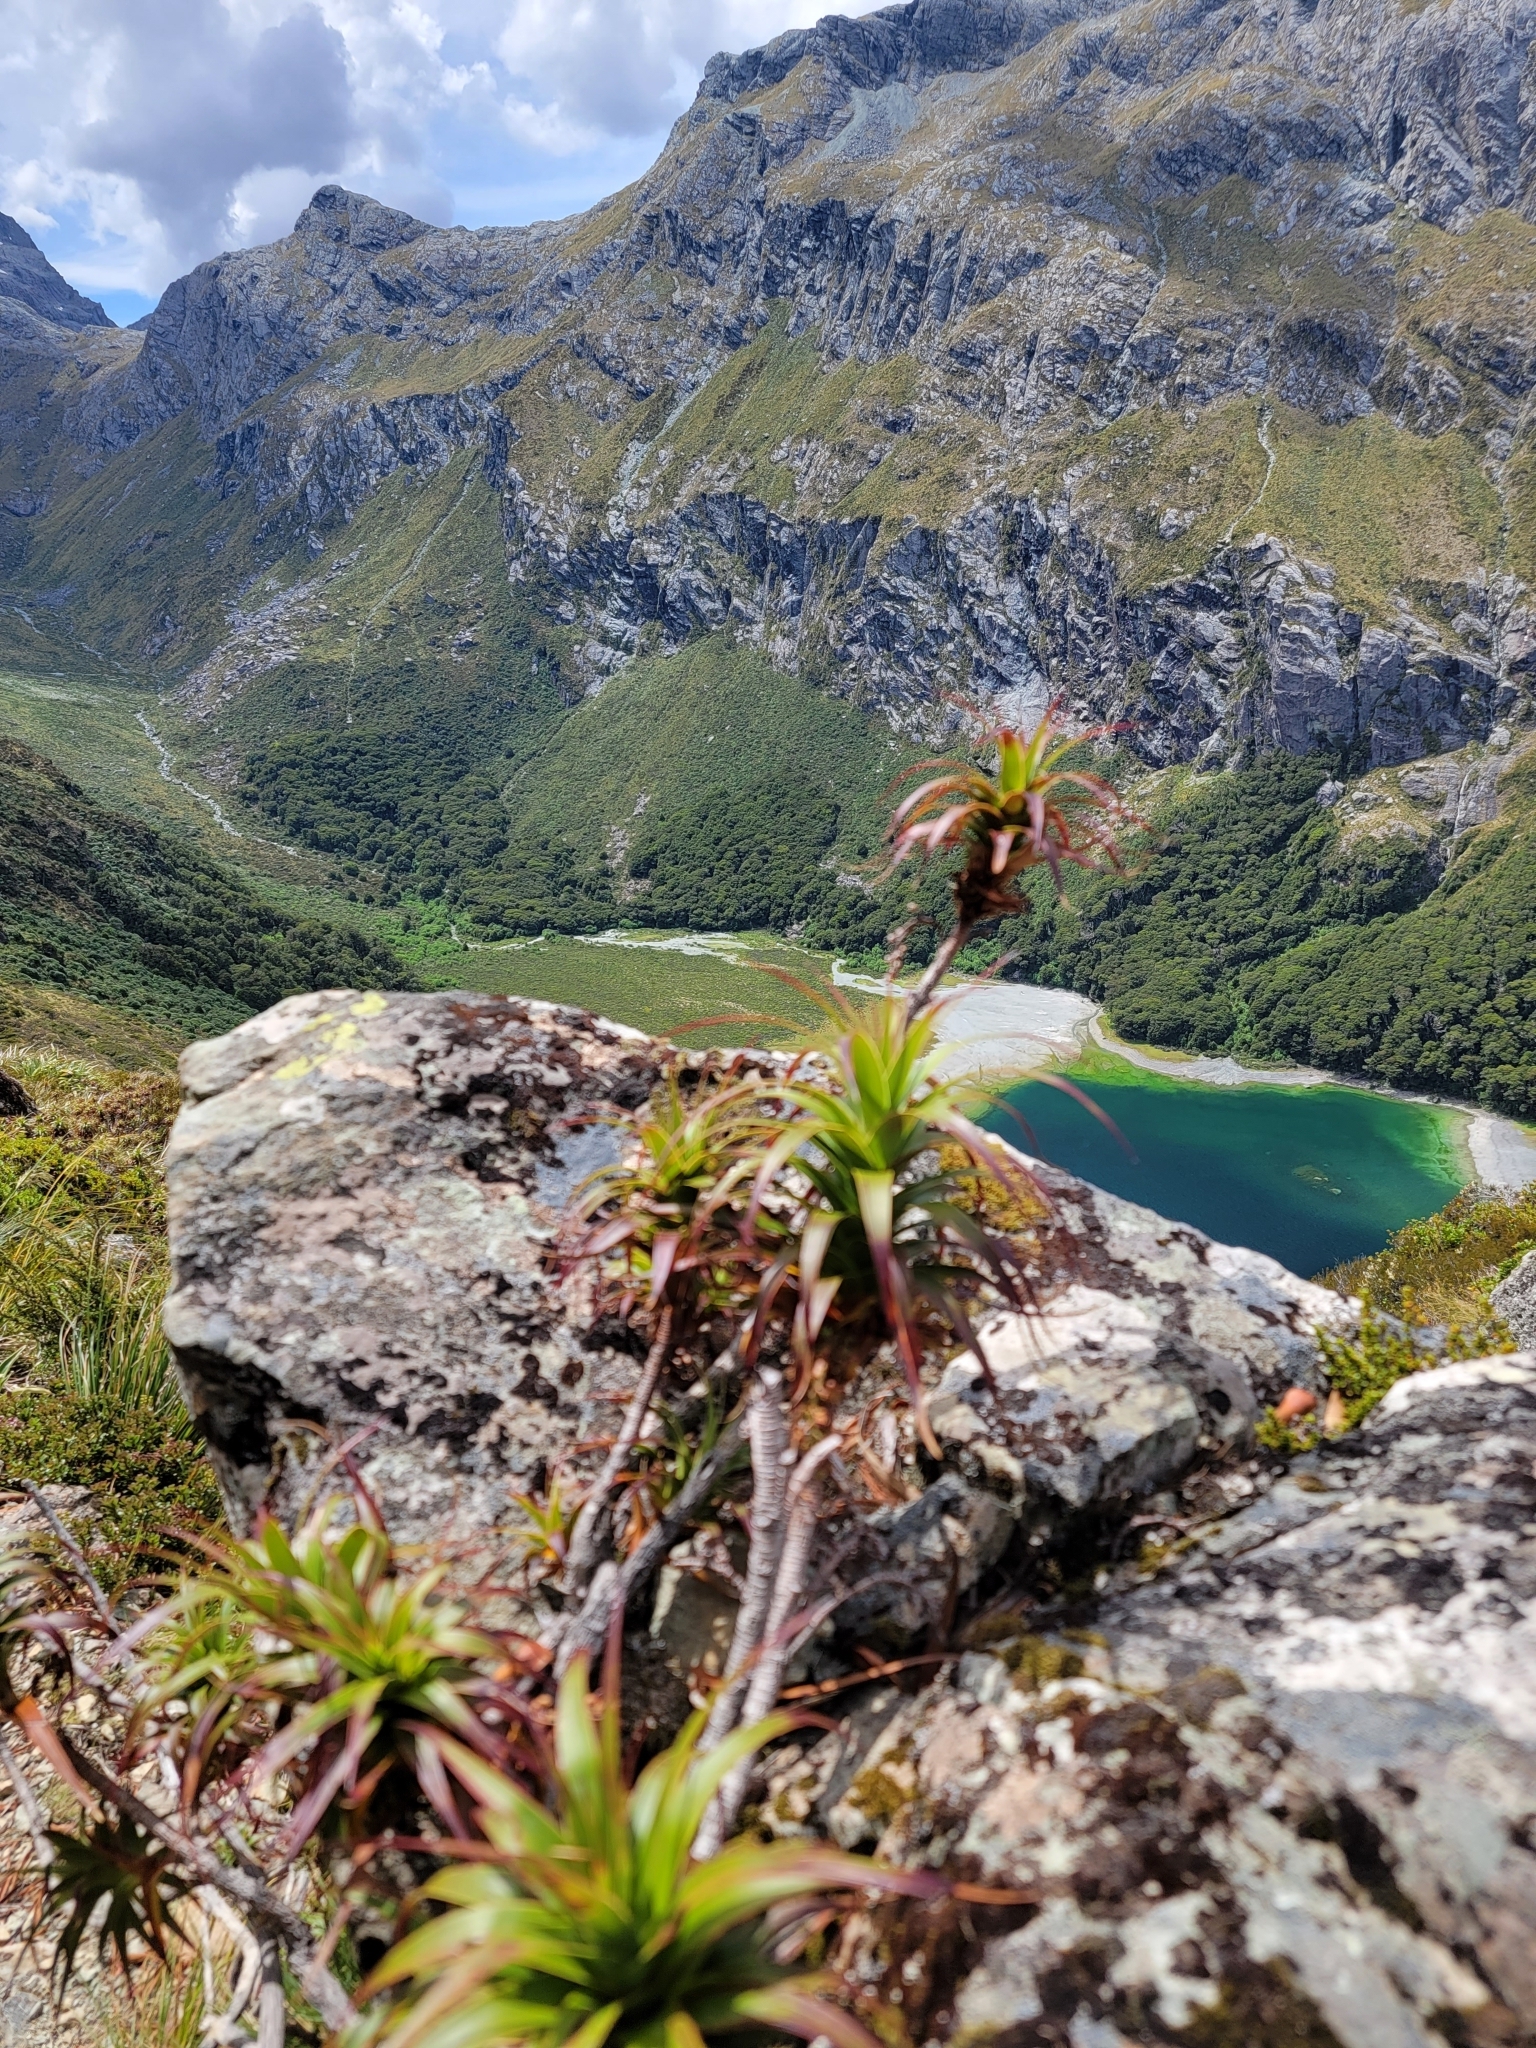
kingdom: Plantae
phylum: Tracheophyta
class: Magnoliopsida
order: Ericales
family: Ericaceae
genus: Dracophyllum
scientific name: Dracophyllum menziesii
